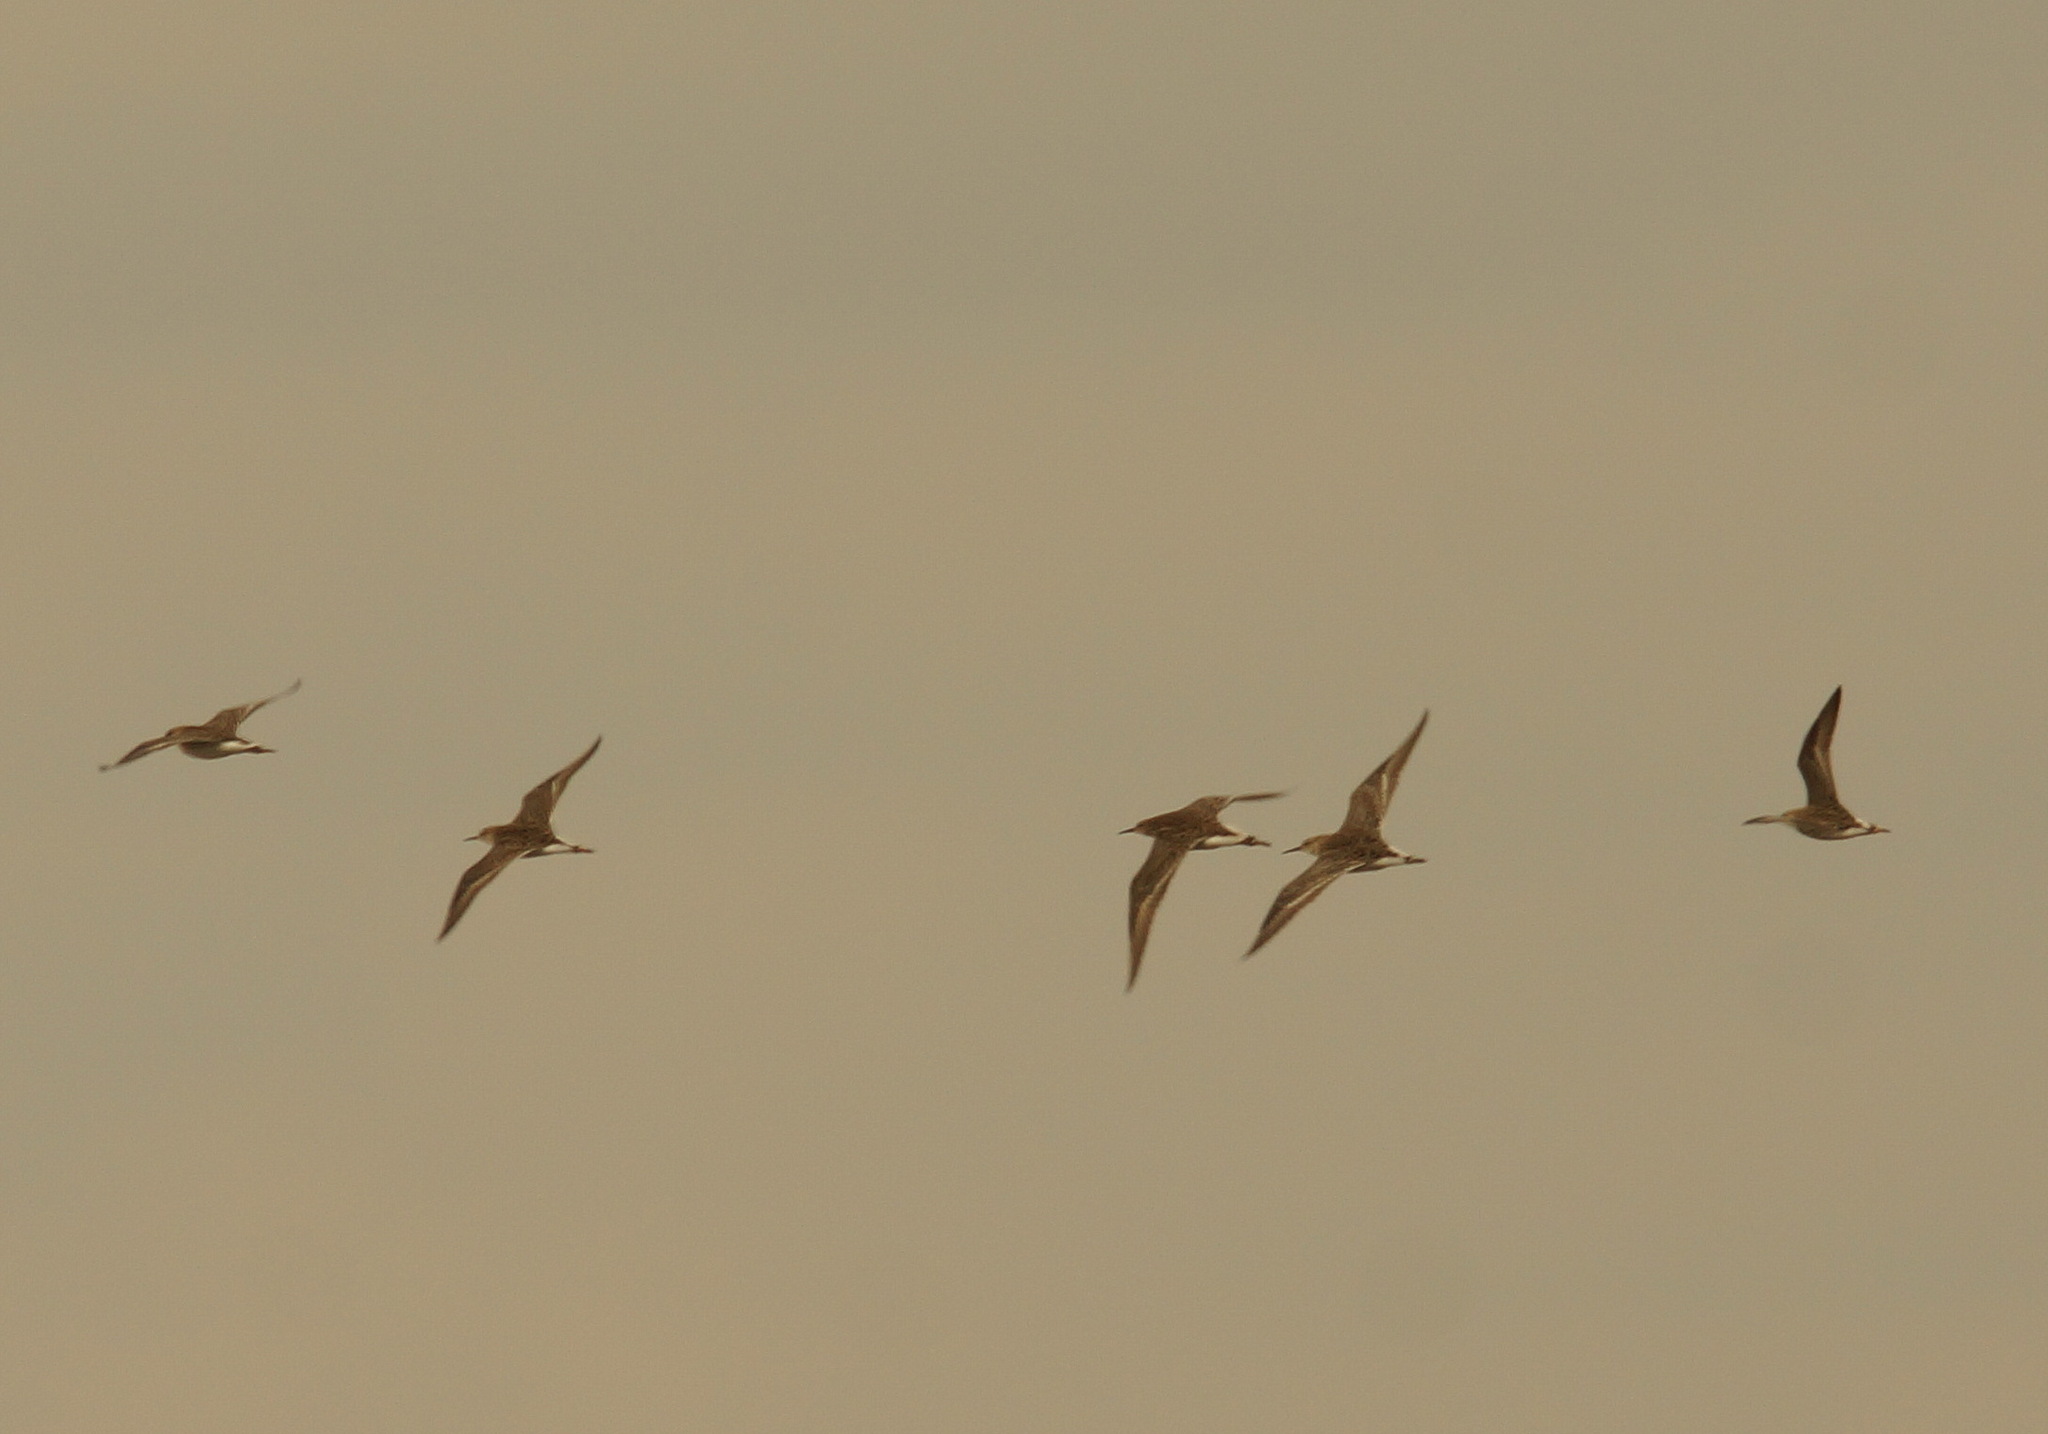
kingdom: Animalia
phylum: Chordata
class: Aves
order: Charadriiformes
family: Scolopacidae
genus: Calidris
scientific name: Calidris pugnax
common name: Ruff
